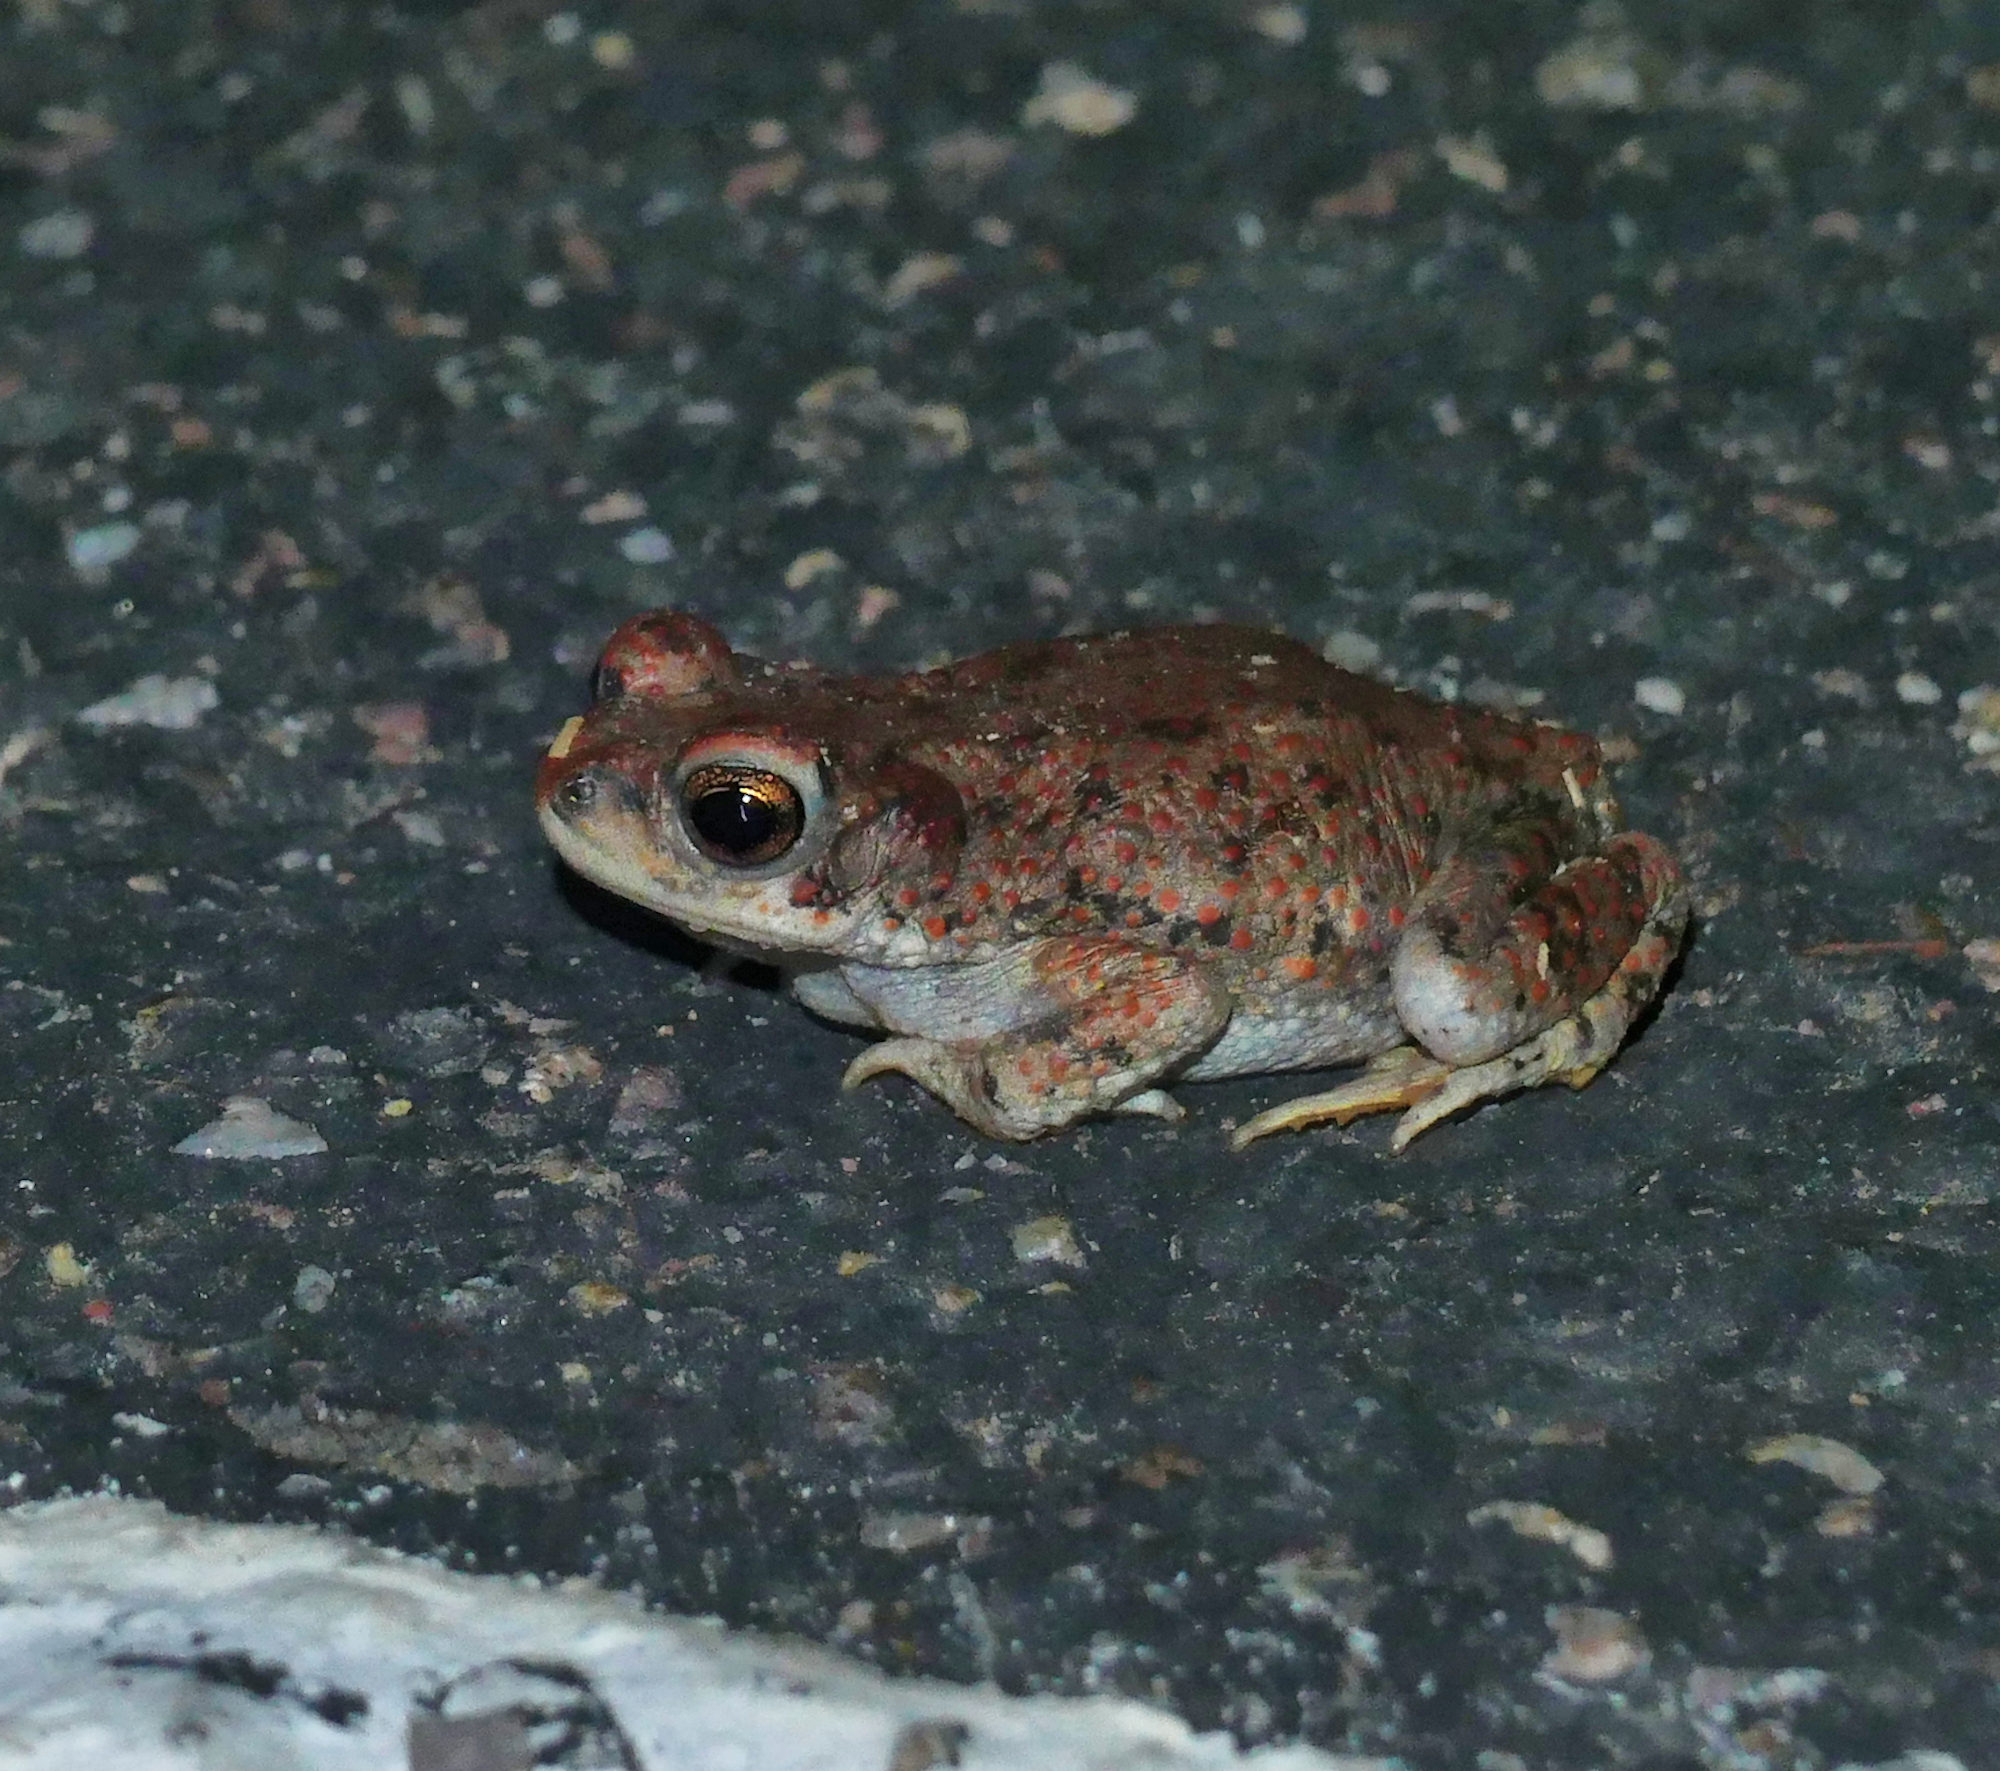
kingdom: Animalia
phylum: Chordata
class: Amphibia
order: Anura
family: Bufonidae
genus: Anaxyrus
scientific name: Anaxyrus punctatus
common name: Red-spotted toad
